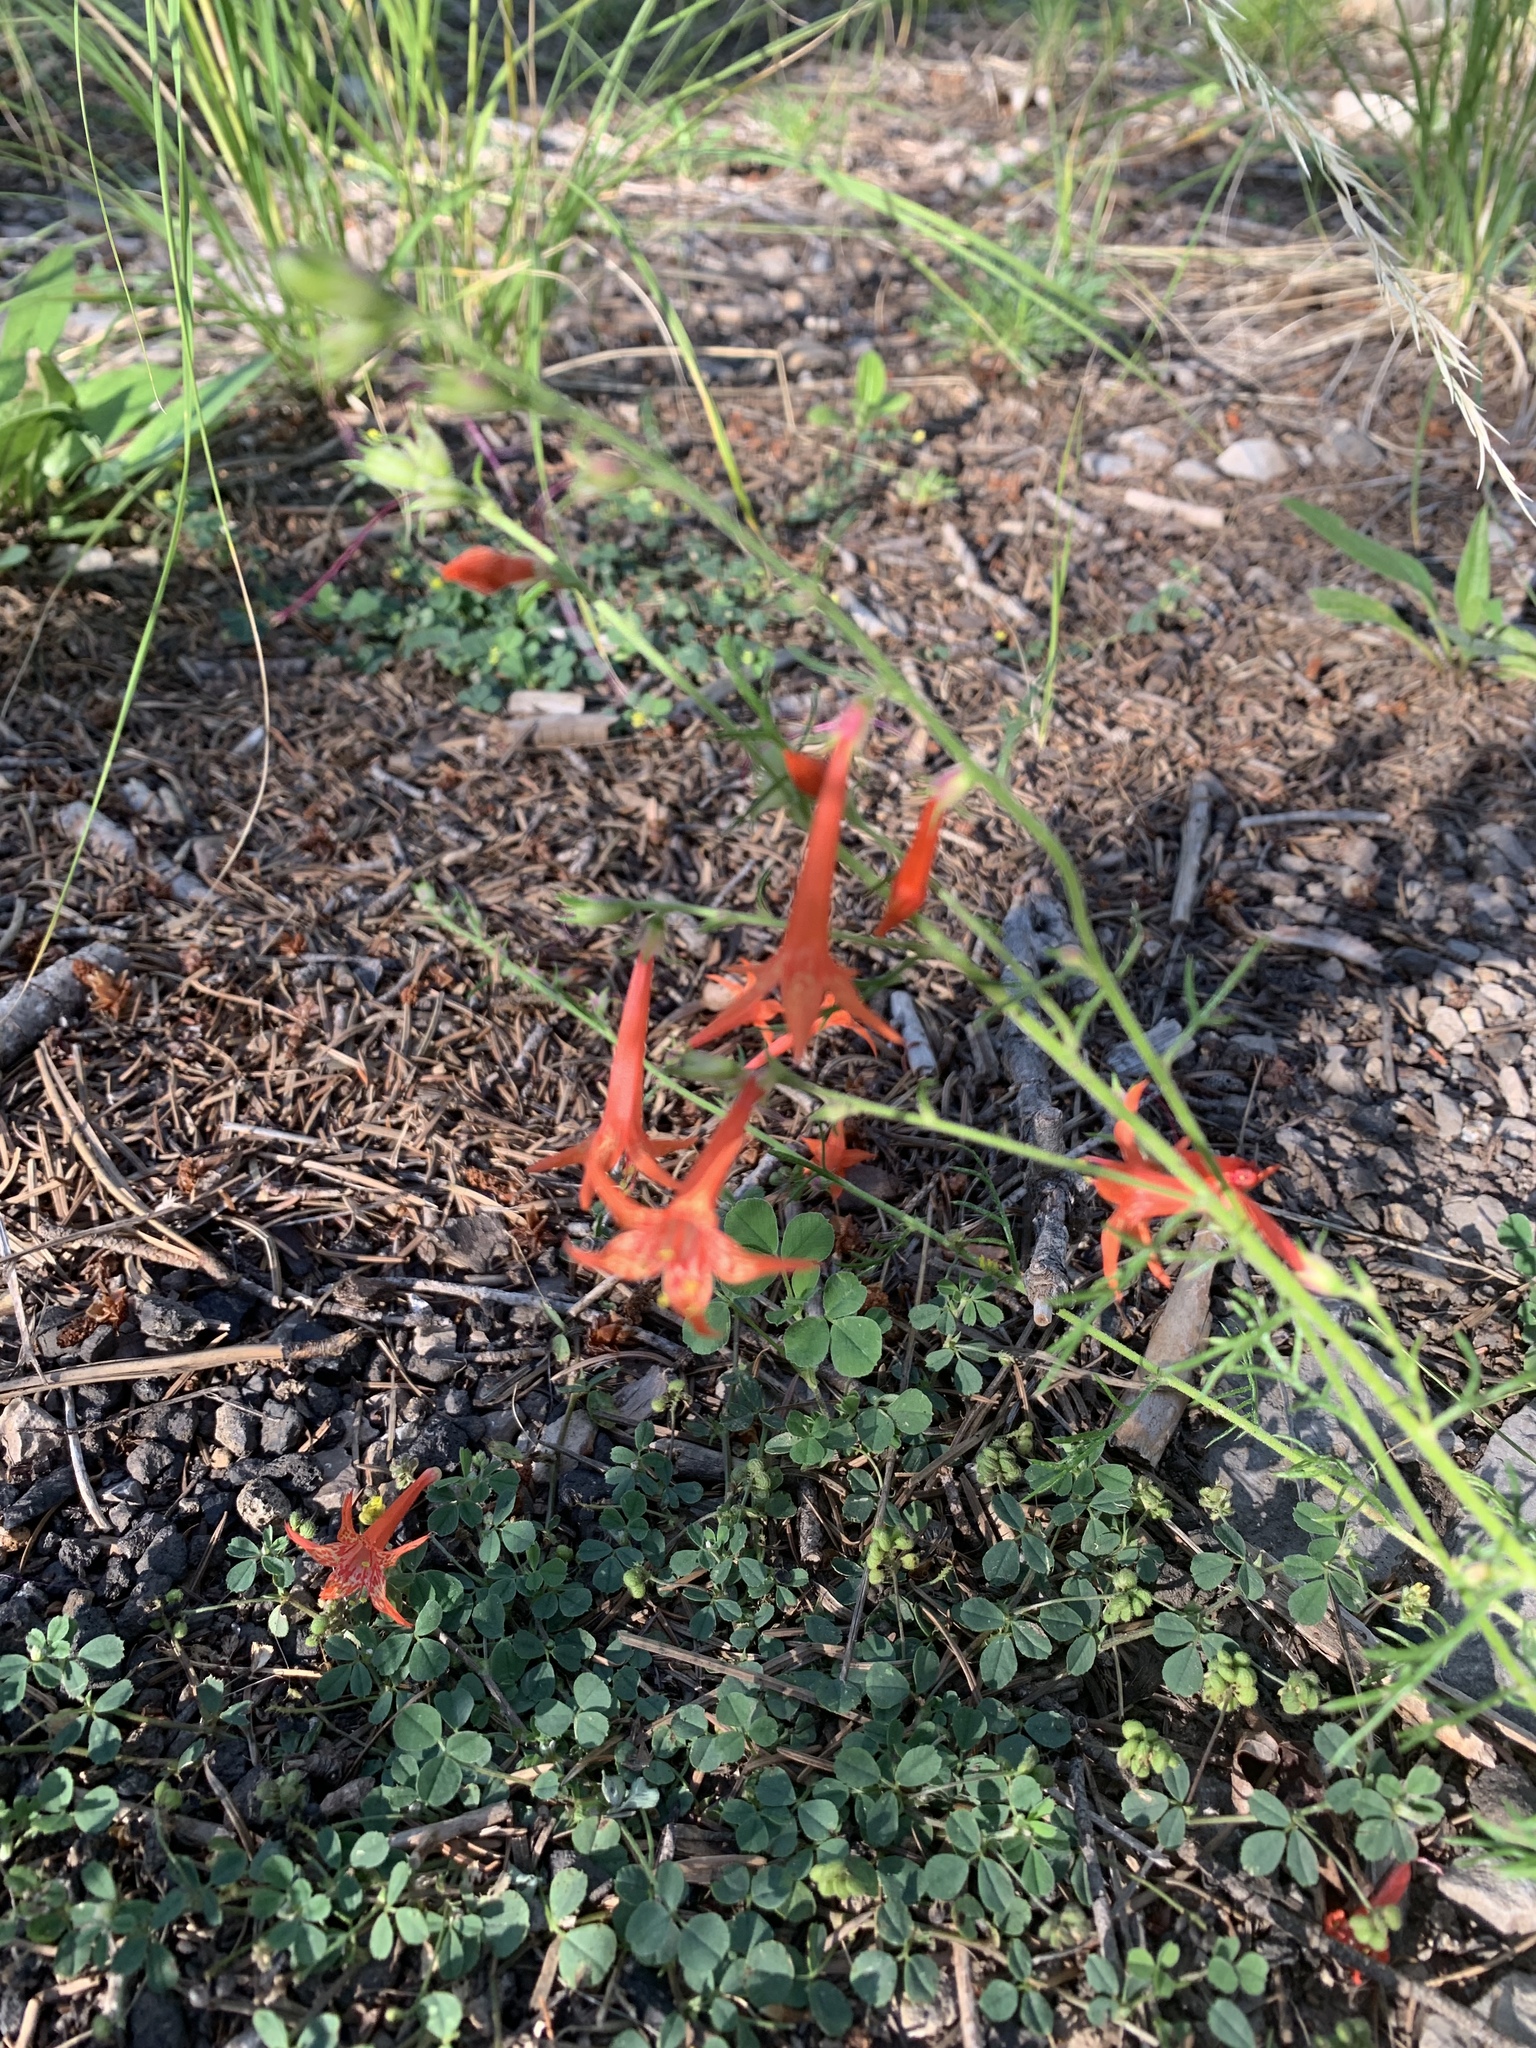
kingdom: Plantae
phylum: Tracheophyta
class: Magnoliopsida
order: Ericales
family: Polemoniaceae
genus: Ipomopsis
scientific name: Ipomopsis aggregata
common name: Scarlet gilia
